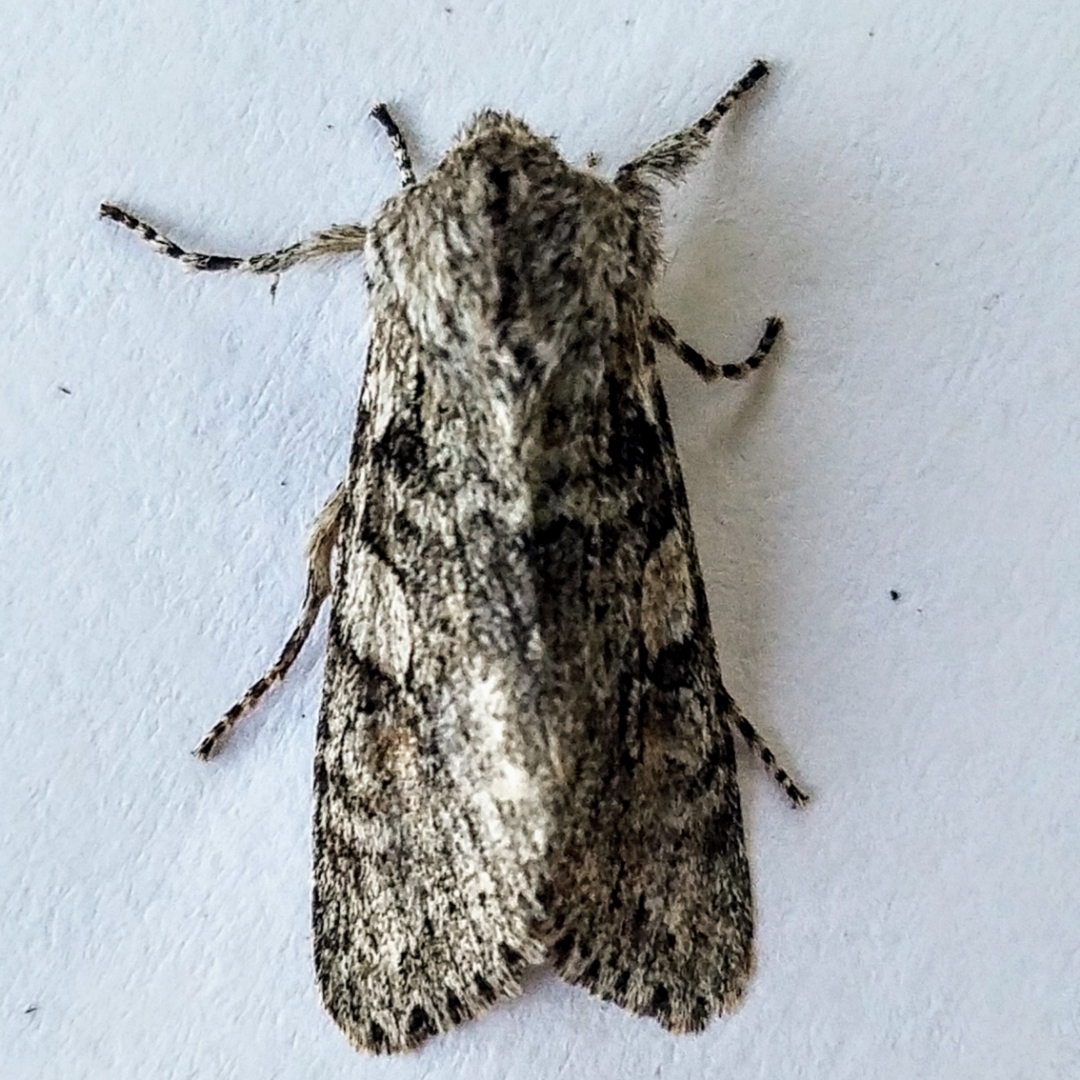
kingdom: Animalia
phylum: Arthropoda
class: Insecta
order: Lepidoptera
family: Noctuidae
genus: Egira
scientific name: Egira hiemalis
